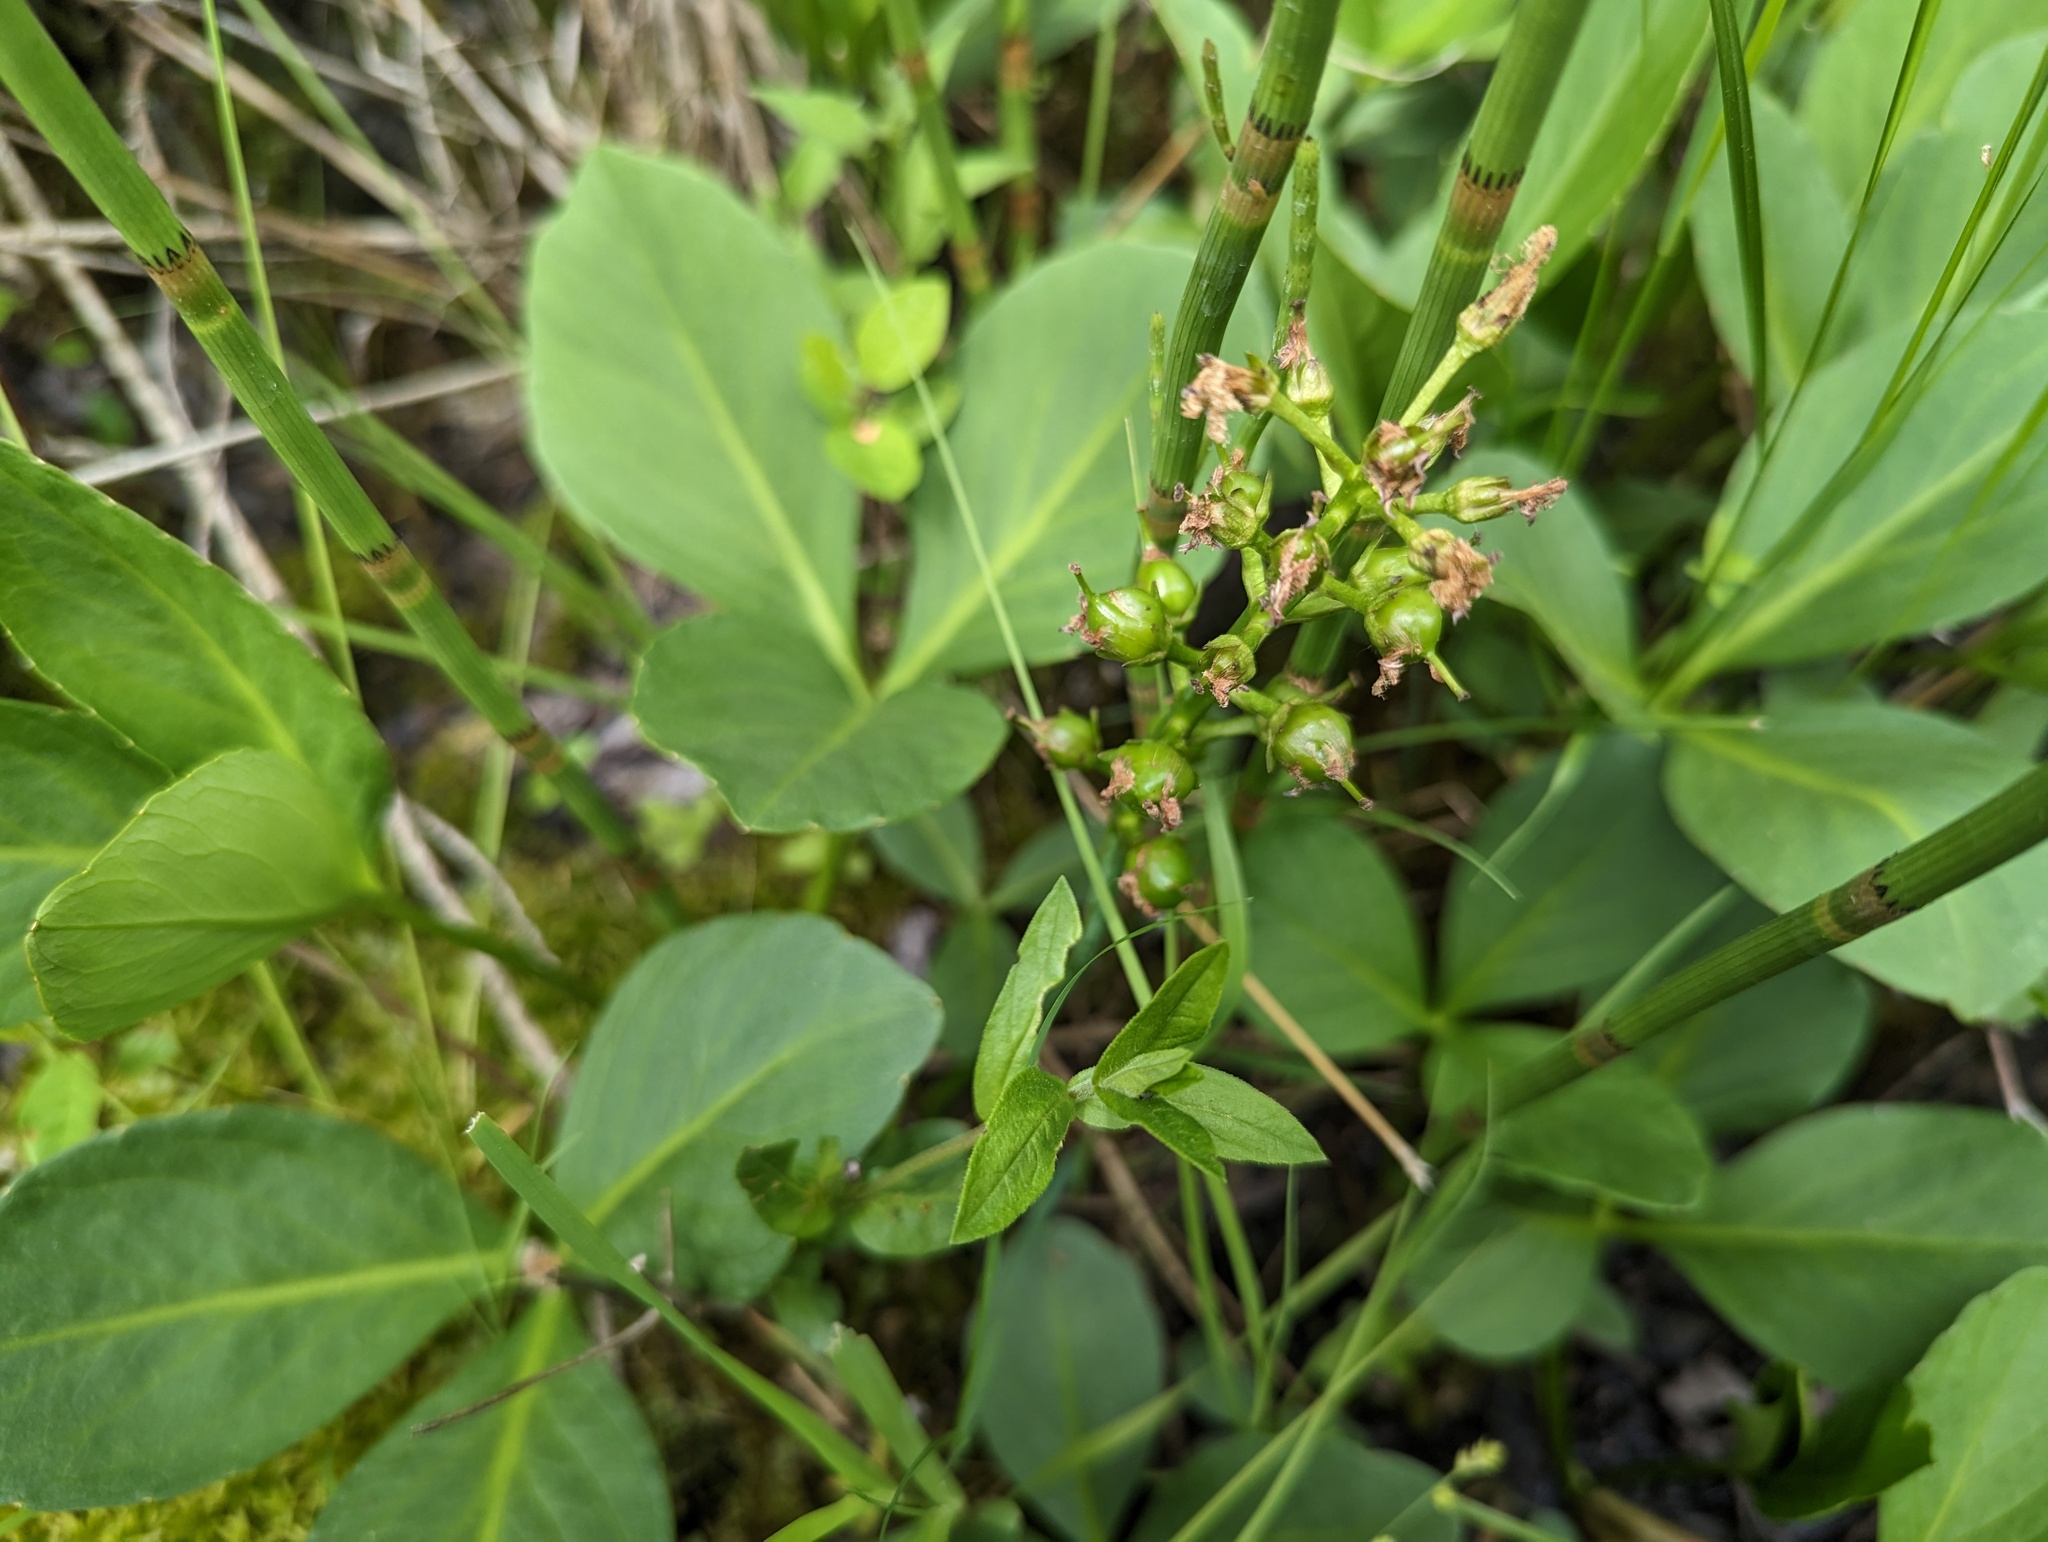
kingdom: Plantae
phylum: Tracheophyta
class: Magnoliopsida
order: Asterales
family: Menyanthaceae
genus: Menyanthes
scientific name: Menyanthes trifoliata
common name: Bogbean
